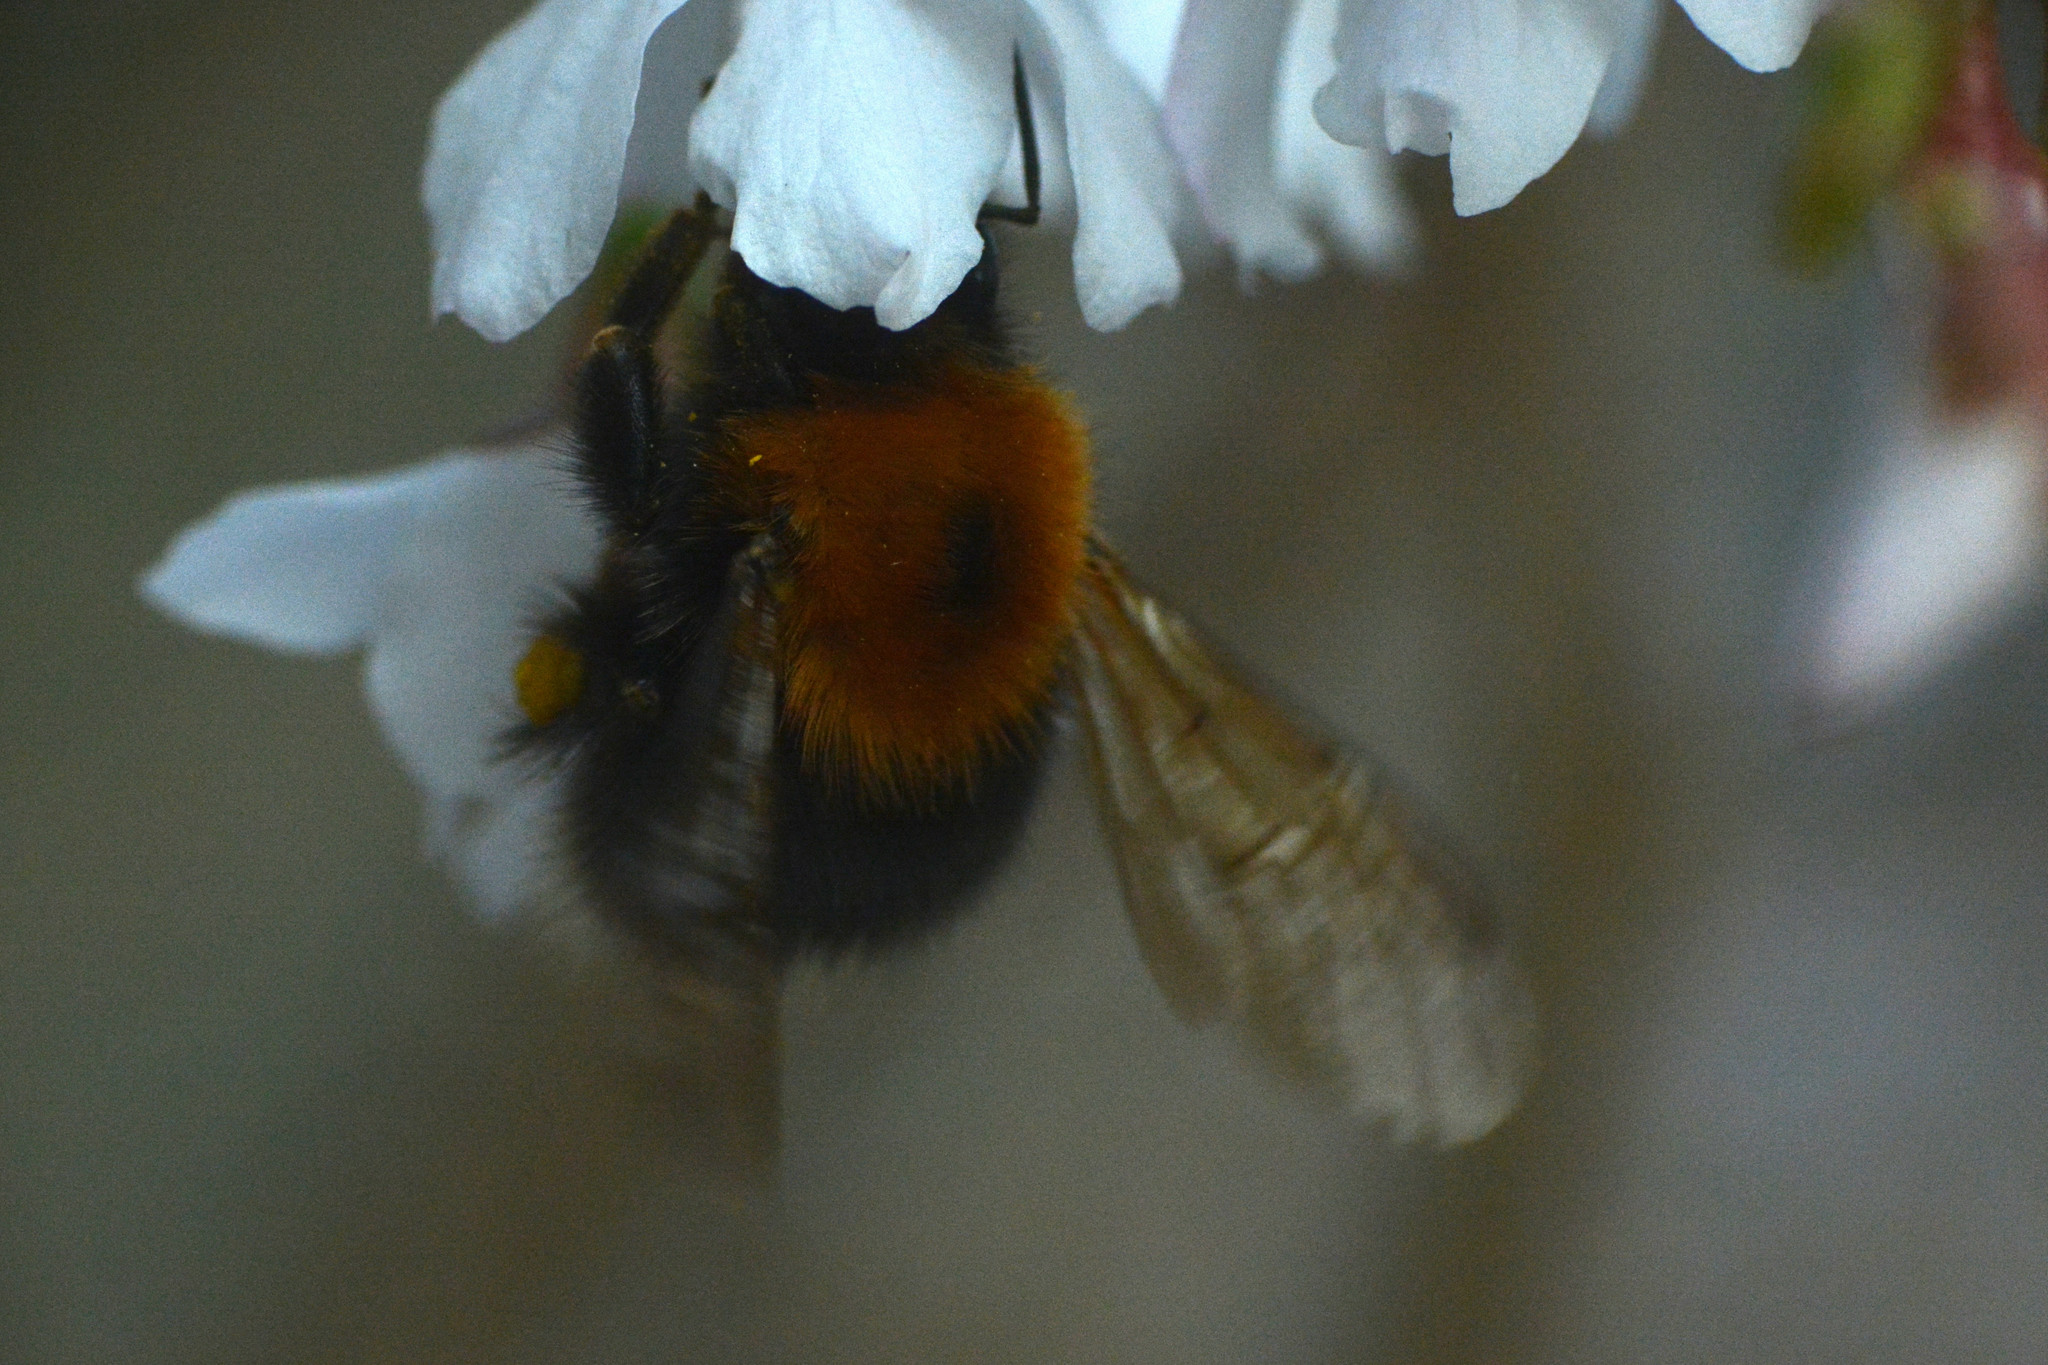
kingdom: Animalia
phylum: Arthropoda
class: Insecta
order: Hymenoptera
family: Apidae
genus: Bombus
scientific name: Bombus hypnorum
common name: New garden bumblebee
